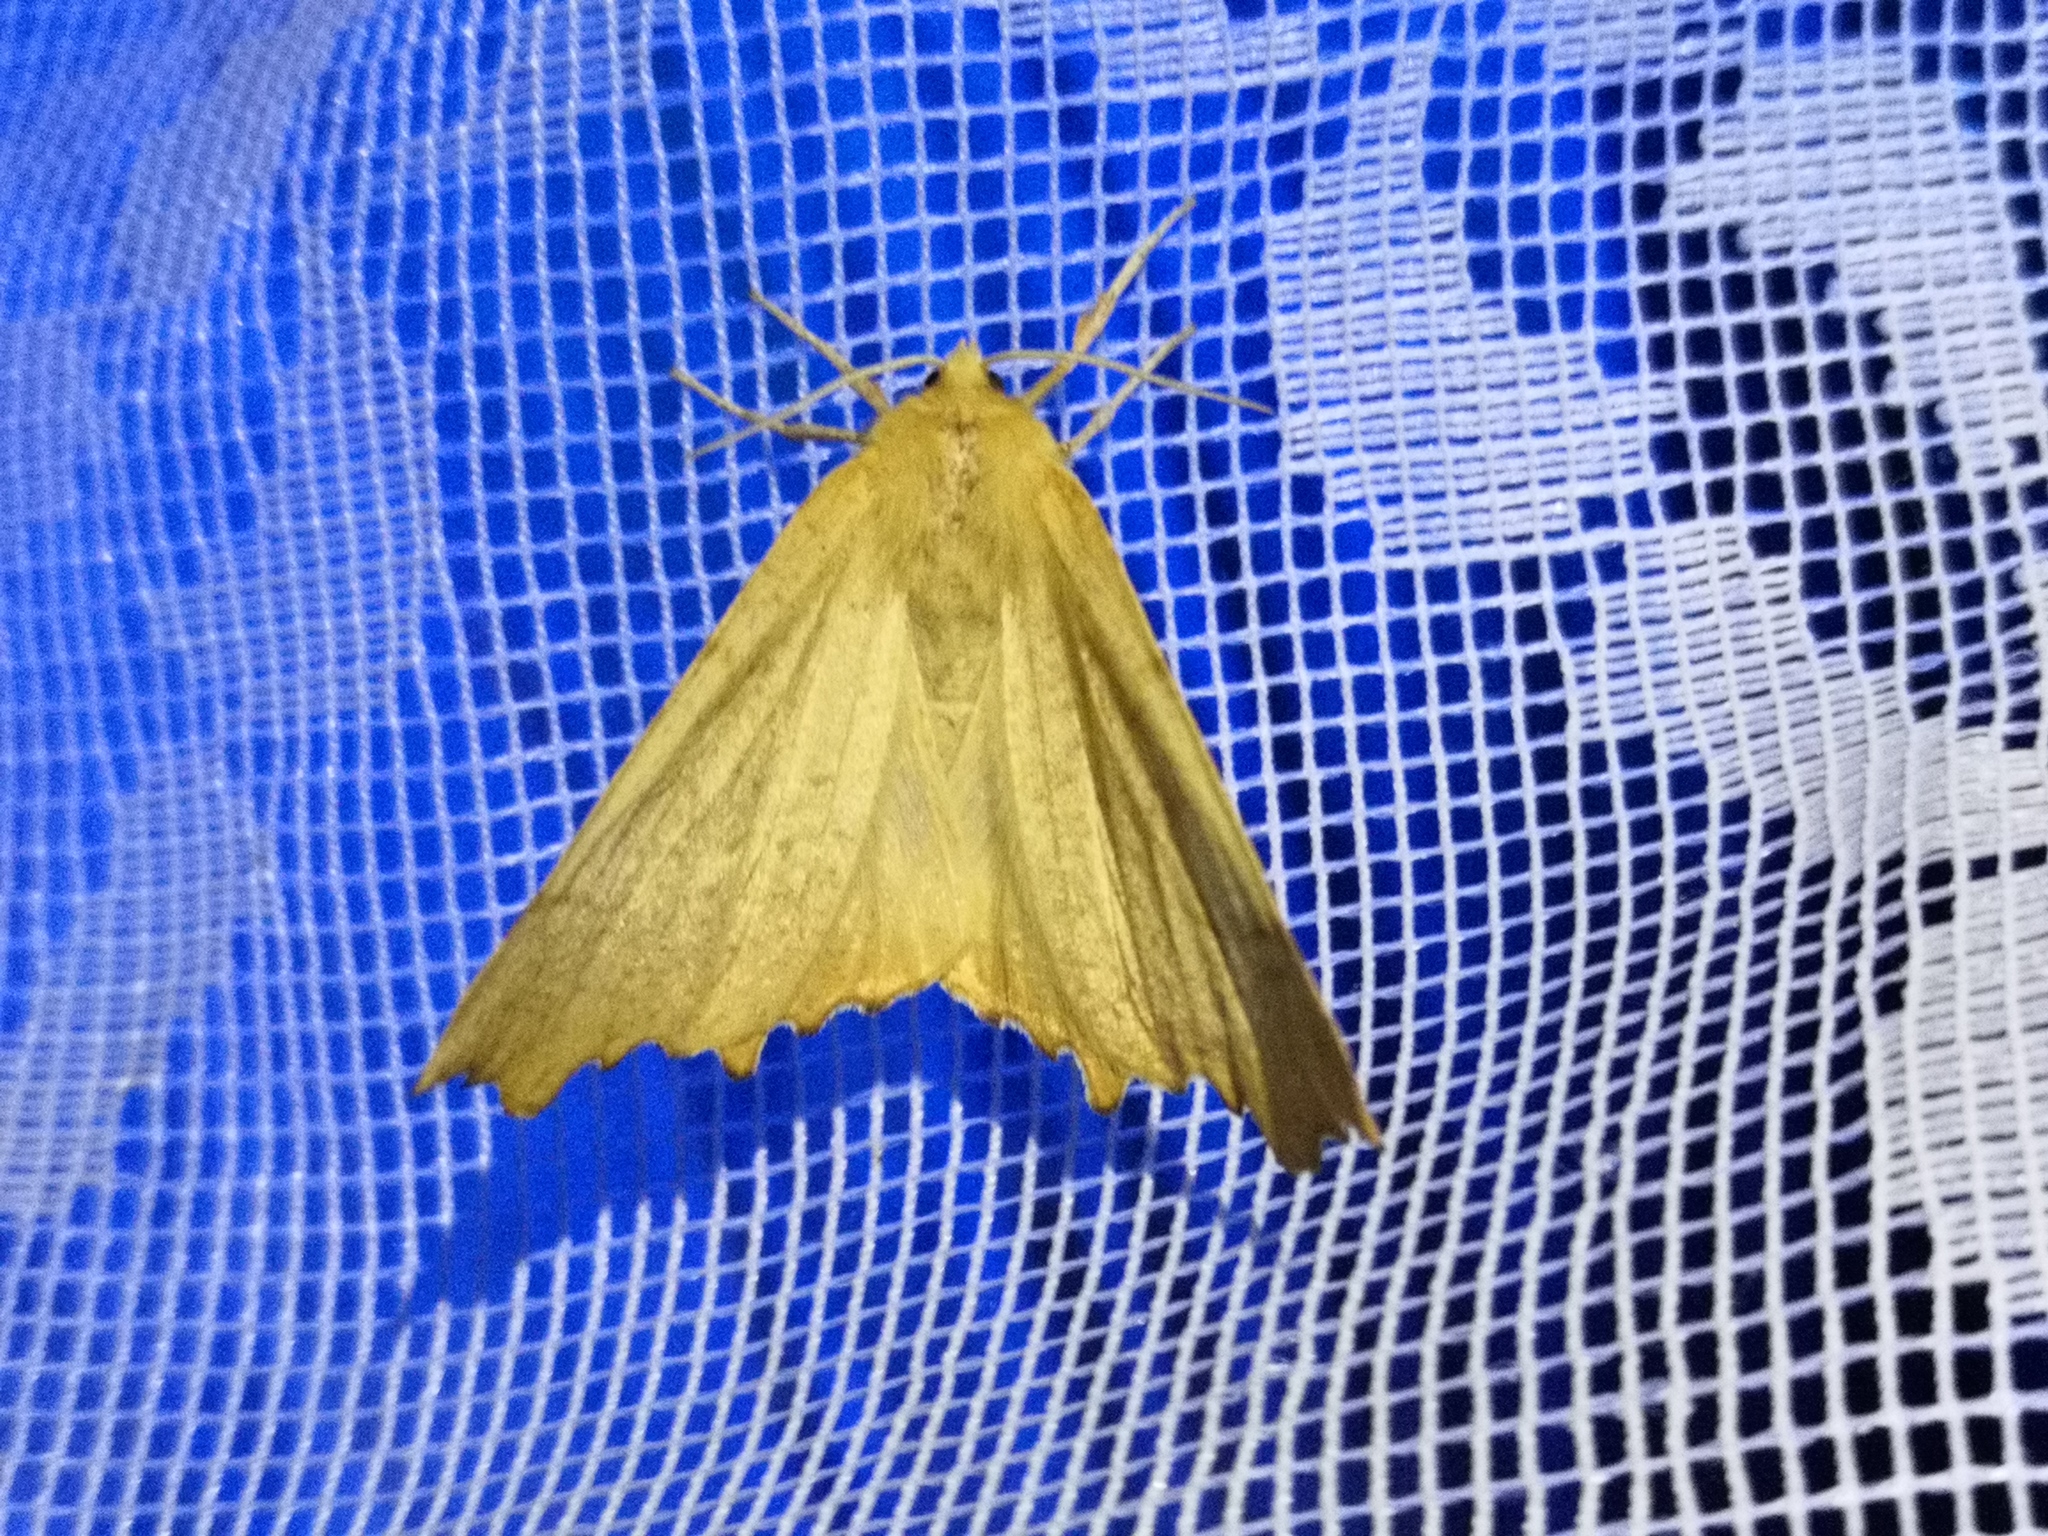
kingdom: Animalia
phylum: Arthropoda
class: Insecta
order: Lepidoptera
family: Geometridae
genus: Ennomos
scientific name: Ennomos autumnaria
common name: Large thorn
